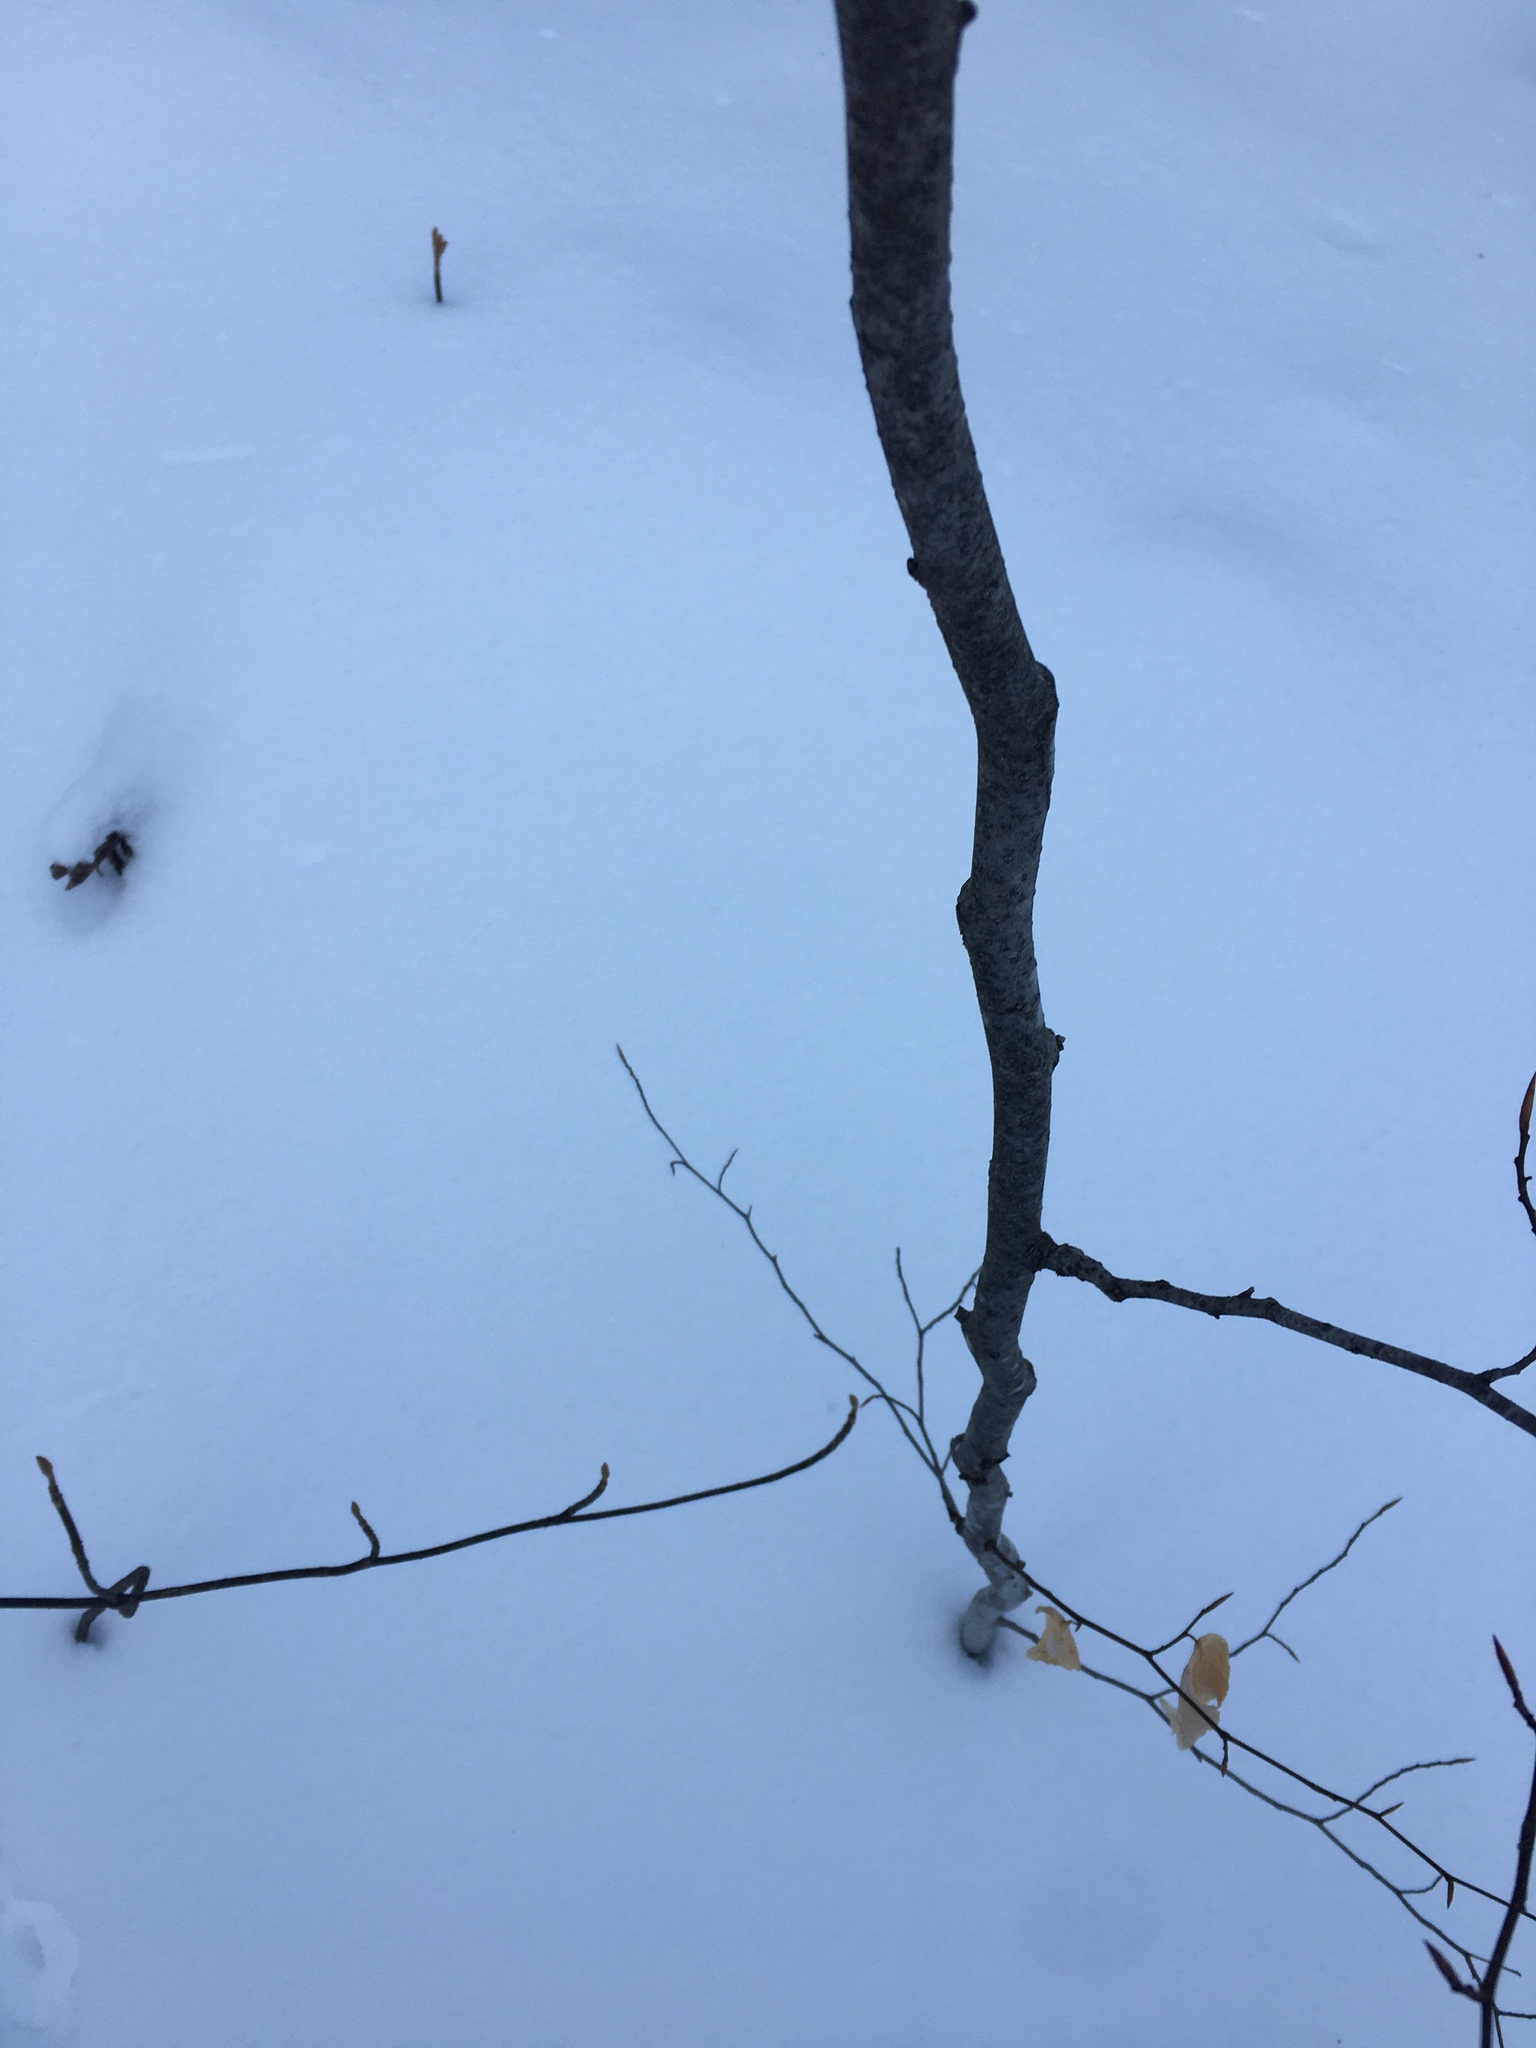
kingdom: Plantae
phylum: Tracheophyta
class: Magnoliopsida
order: Fagales
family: Fagaceae
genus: Fagus
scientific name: Fagus grandifolia
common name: American beech
